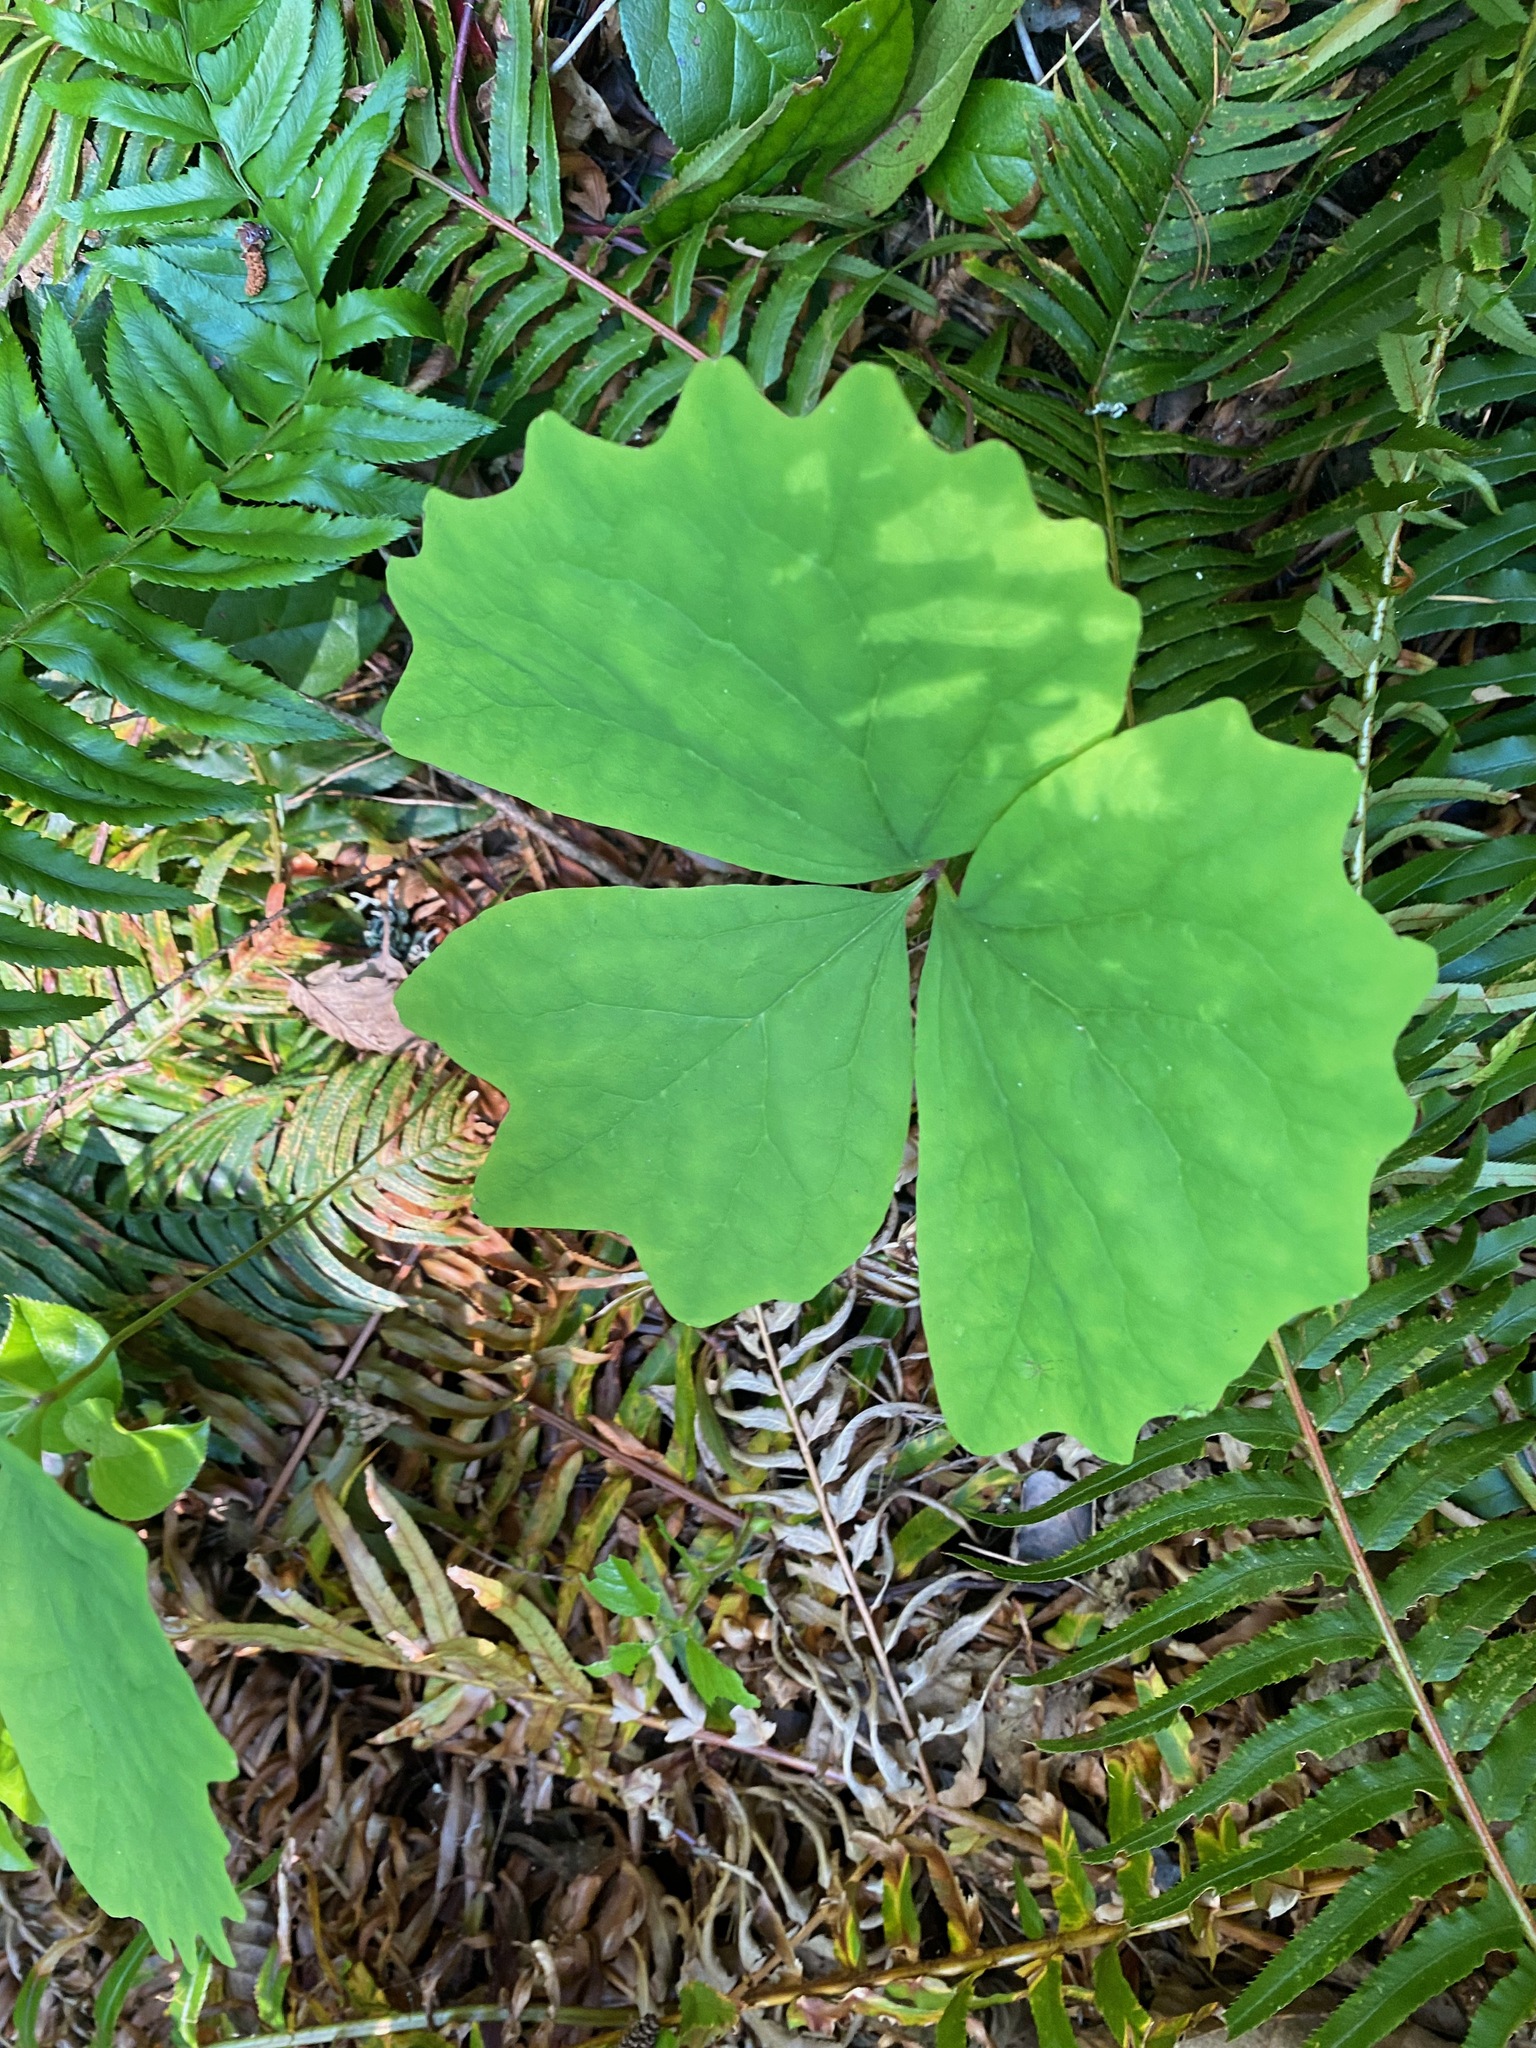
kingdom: Plantae
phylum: Tracheophyta
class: Magnoliopsida
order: Ranunculales
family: Berberidaceae
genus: Achlys
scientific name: Achlys triphylla
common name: Vanilla-leaf
